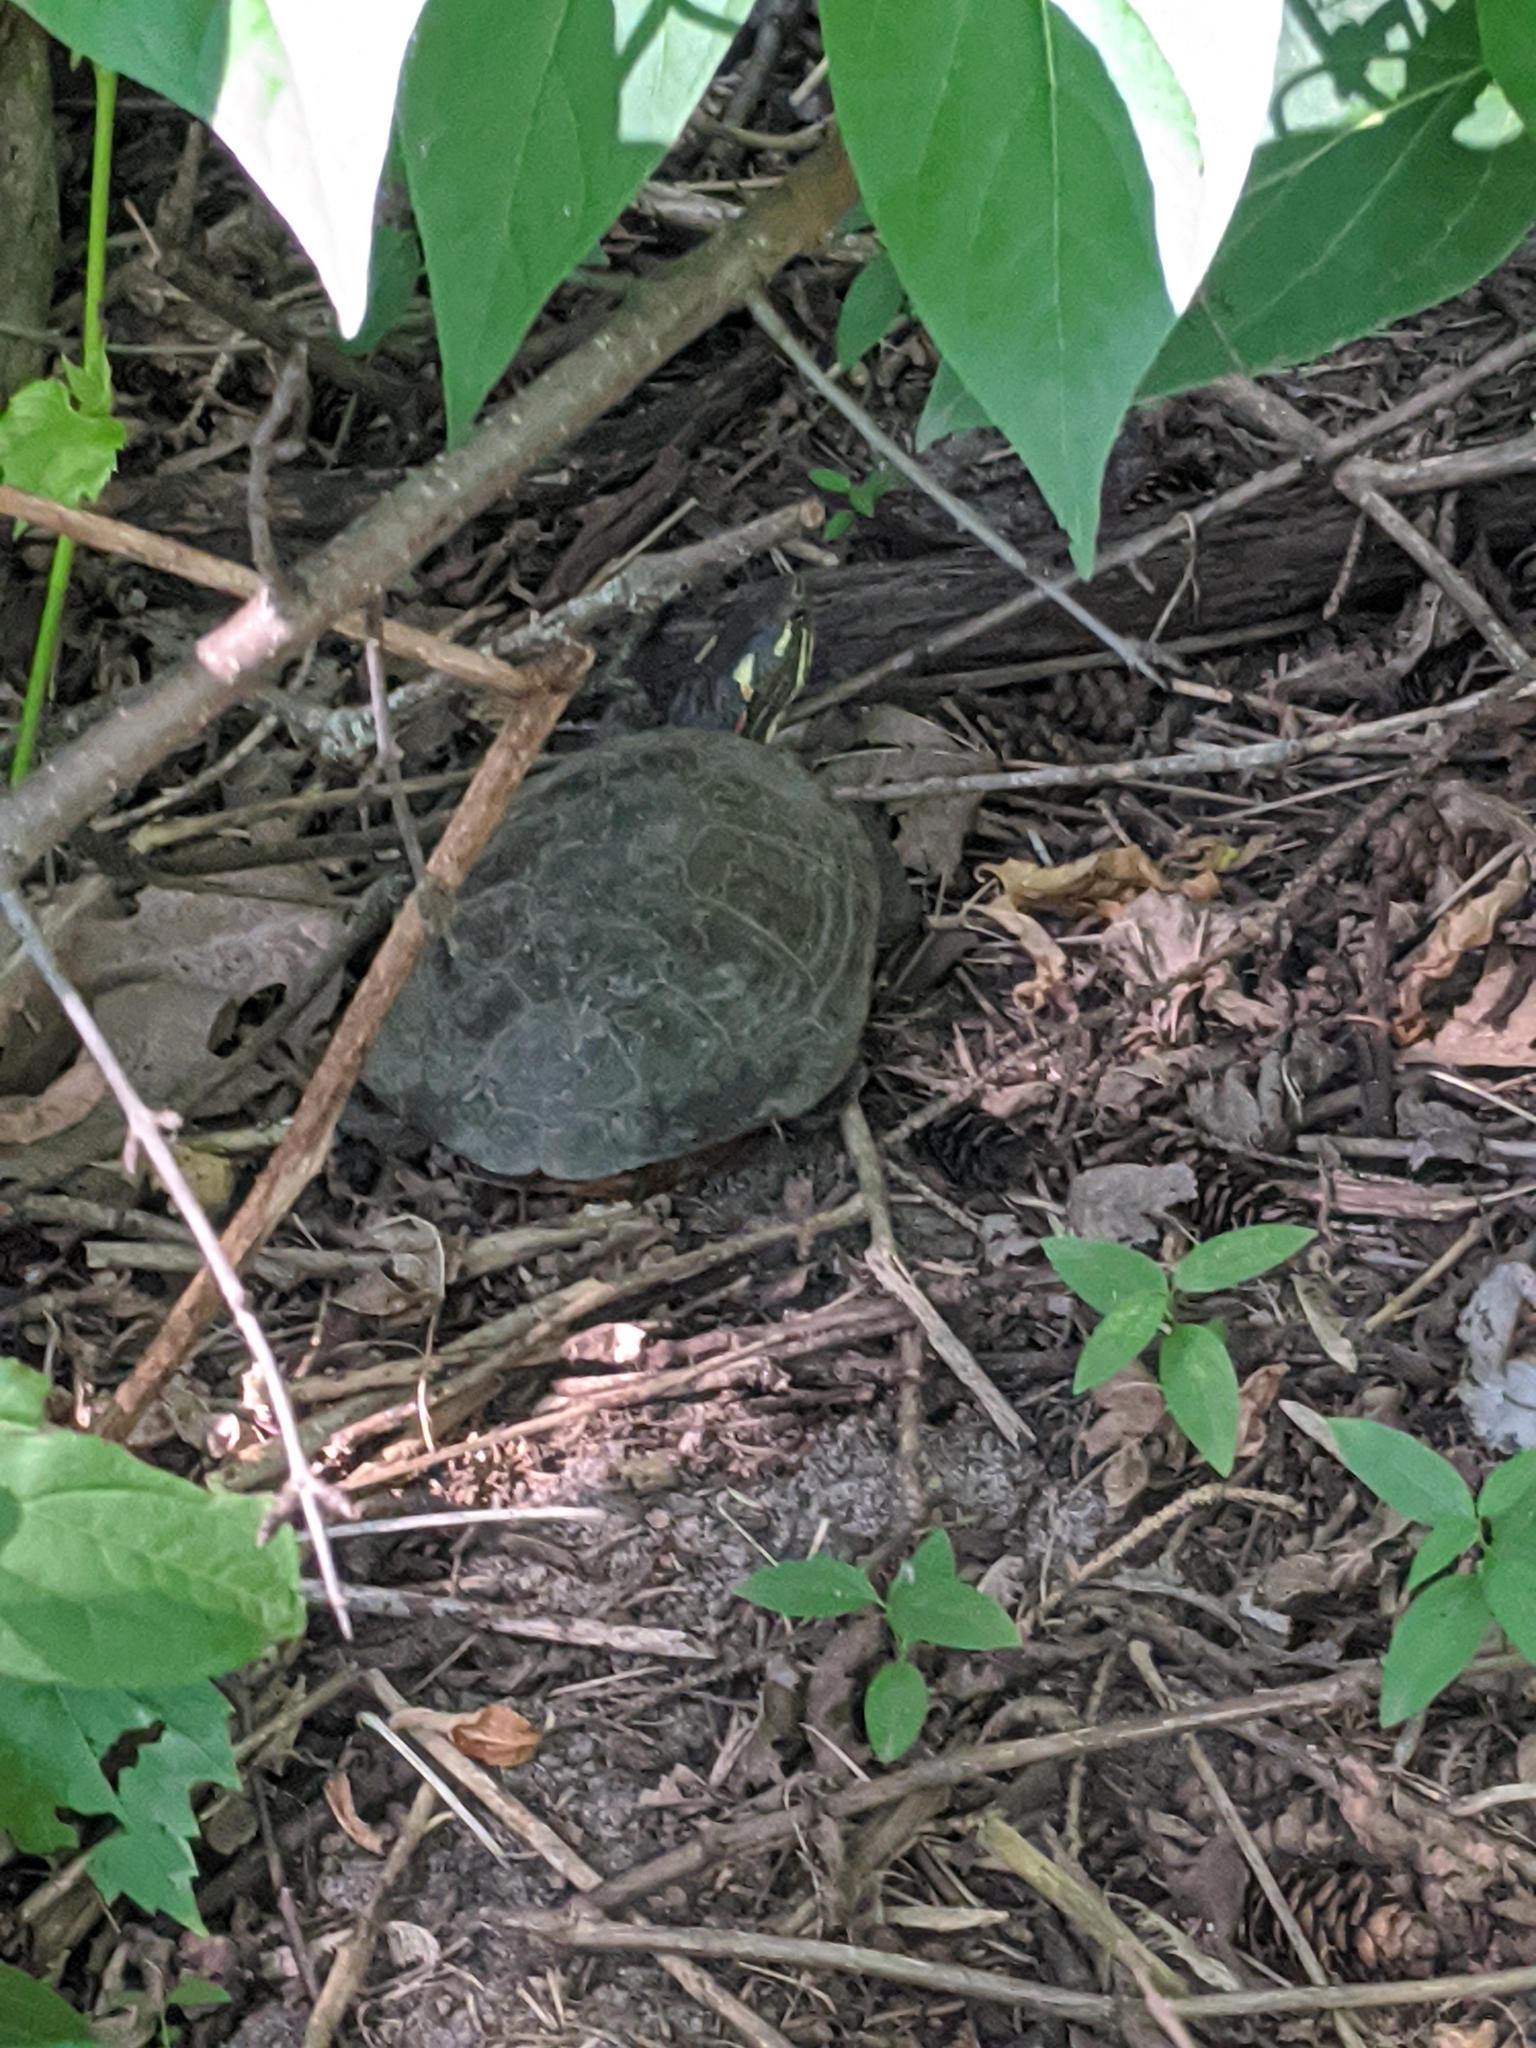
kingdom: Animalia
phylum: Chordata
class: Testudines
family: Emydidae
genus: Chrysemys
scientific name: Chrysemys picta
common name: Painted turtle
